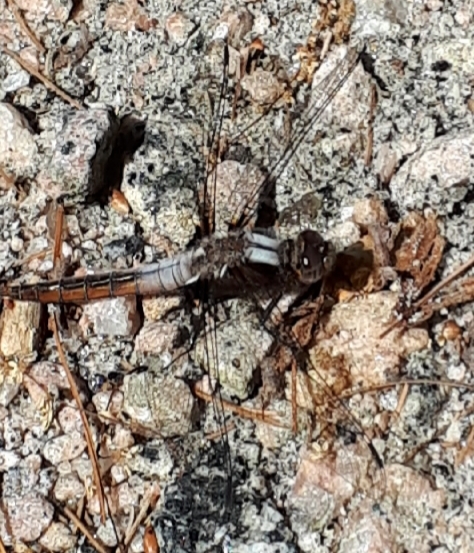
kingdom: Animalia
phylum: Arthropoda
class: Insecta
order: Odonata
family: Libellulidae
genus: Ladona
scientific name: Ladona julia
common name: Chalk-fronted corporal
